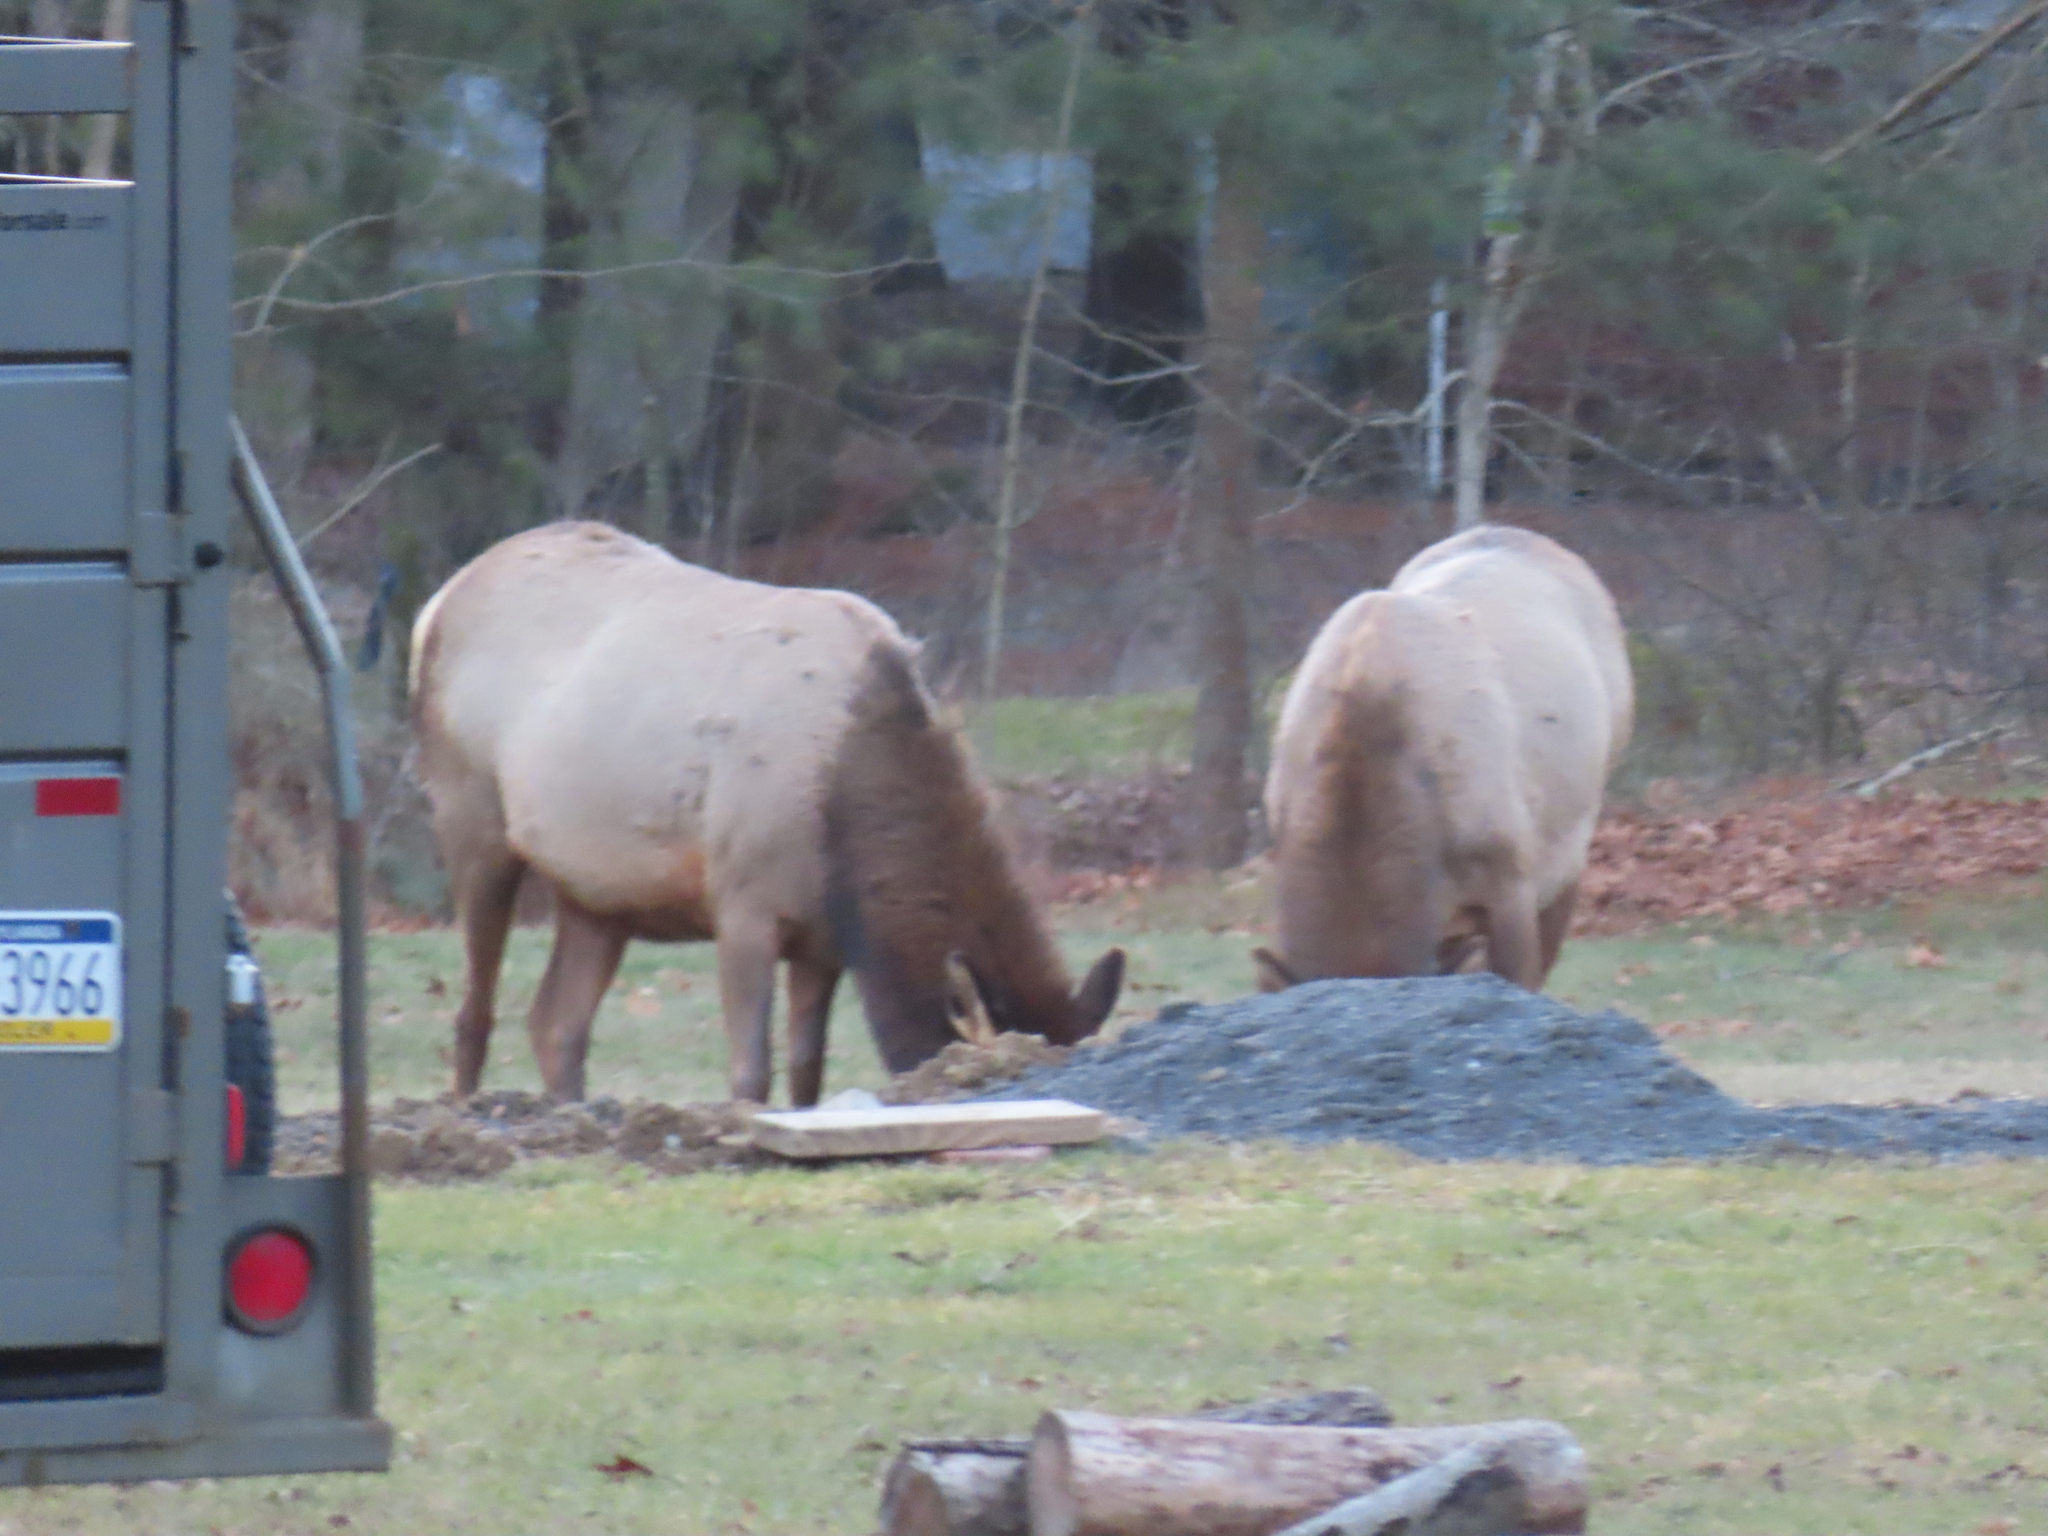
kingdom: Animalia
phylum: Chordata
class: Mammalia
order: Artiodactyla
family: Cervidae
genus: Cervus
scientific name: Cervus elaphus
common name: Red deer
